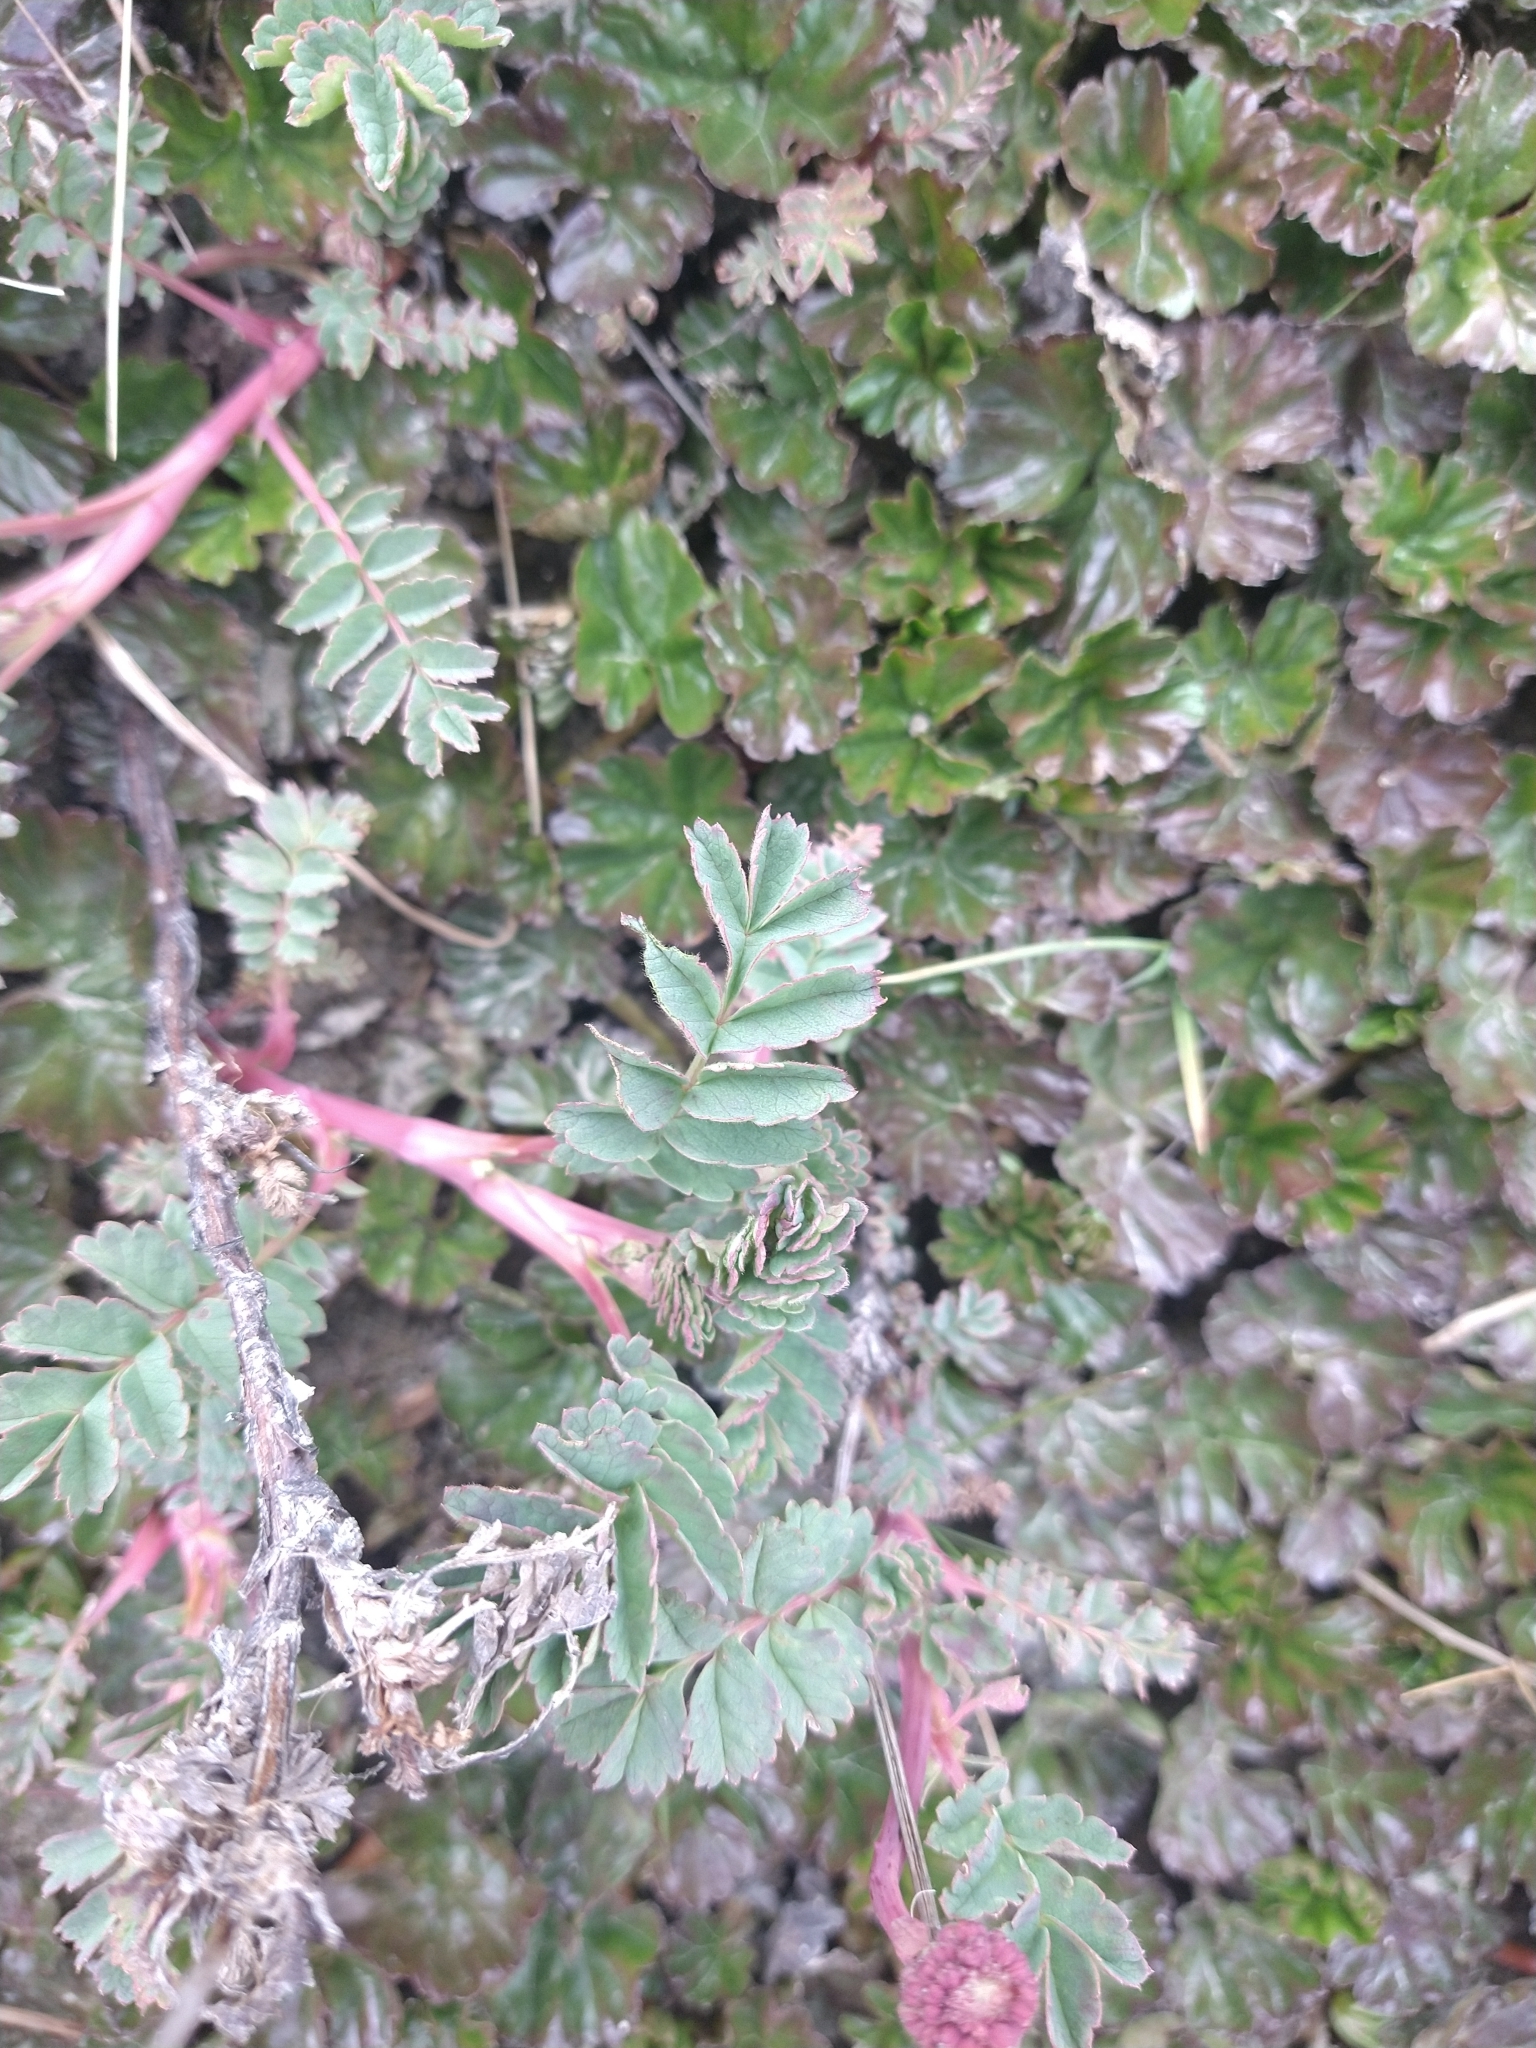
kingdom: Plantae
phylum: Tracheophyta
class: Magnoliopsida
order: Rosales
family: Rosaceae
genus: Acaena
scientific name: Acaena magellanica
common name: New zealand burr
